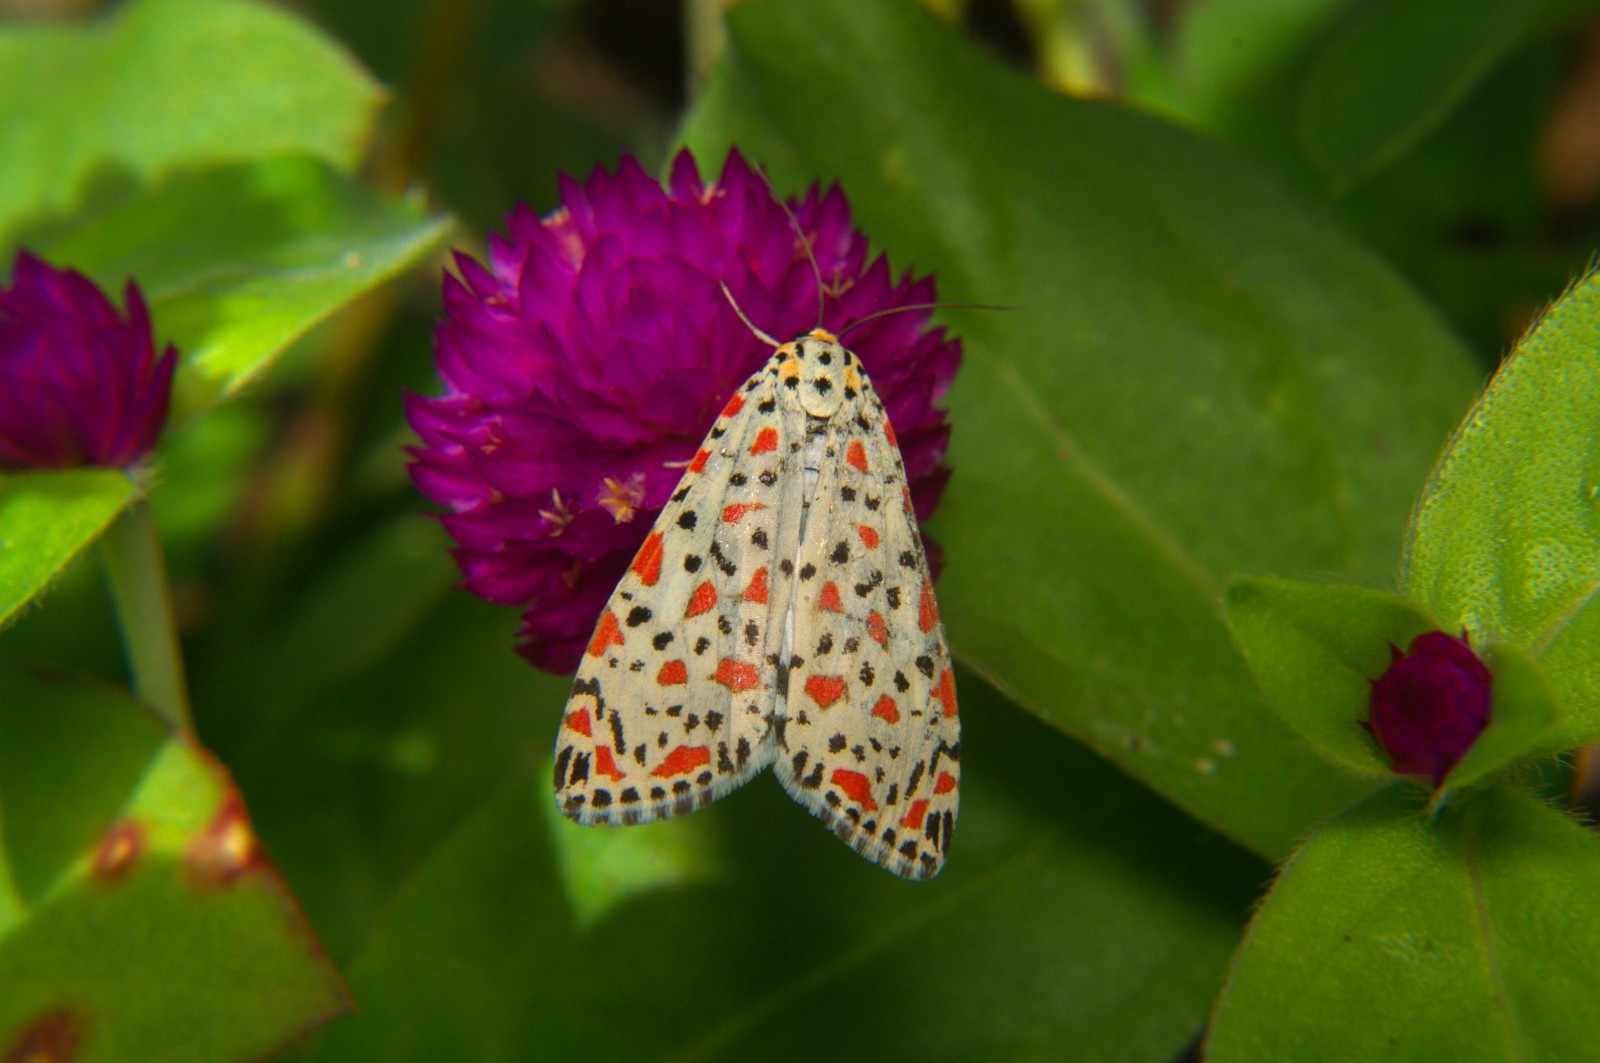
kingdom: Animalia
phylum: Arthropoda
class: Insecta
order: Lepidoptera
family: Erebidae
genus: Utetheisa
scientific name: Utetheisa pulchelloides
